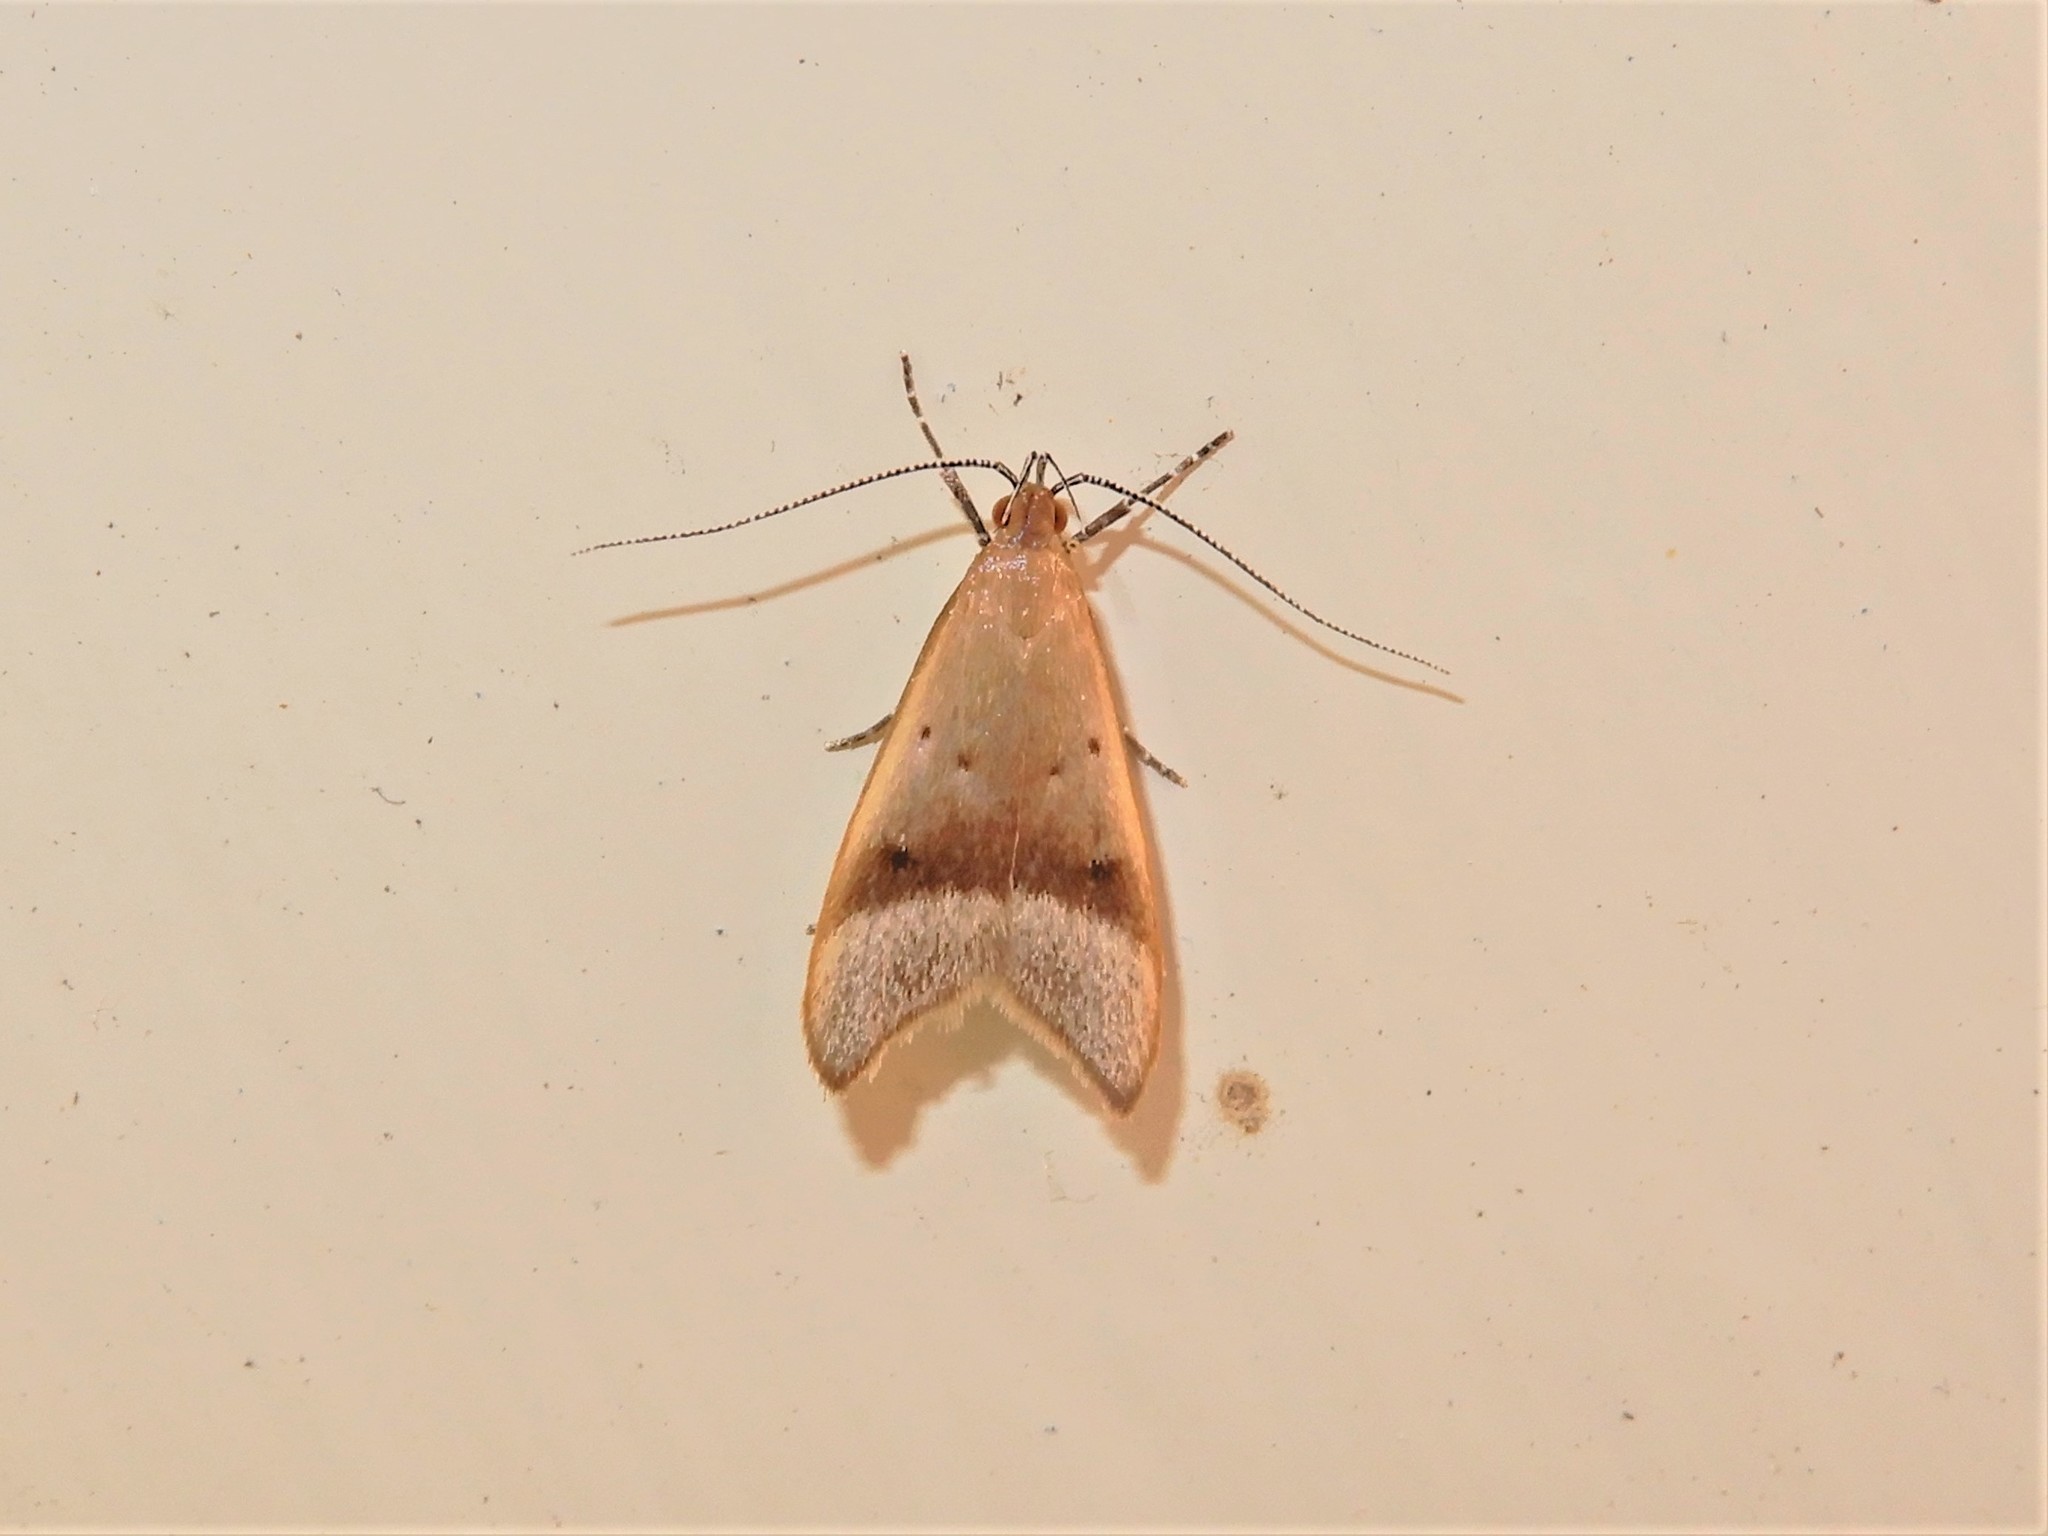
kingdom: Animalia
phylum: Arthropoda
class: Insecta
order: Lepidoptera
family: Oecophoridae
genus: Gymnobathra
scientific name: Gymnobathra hyetodes
